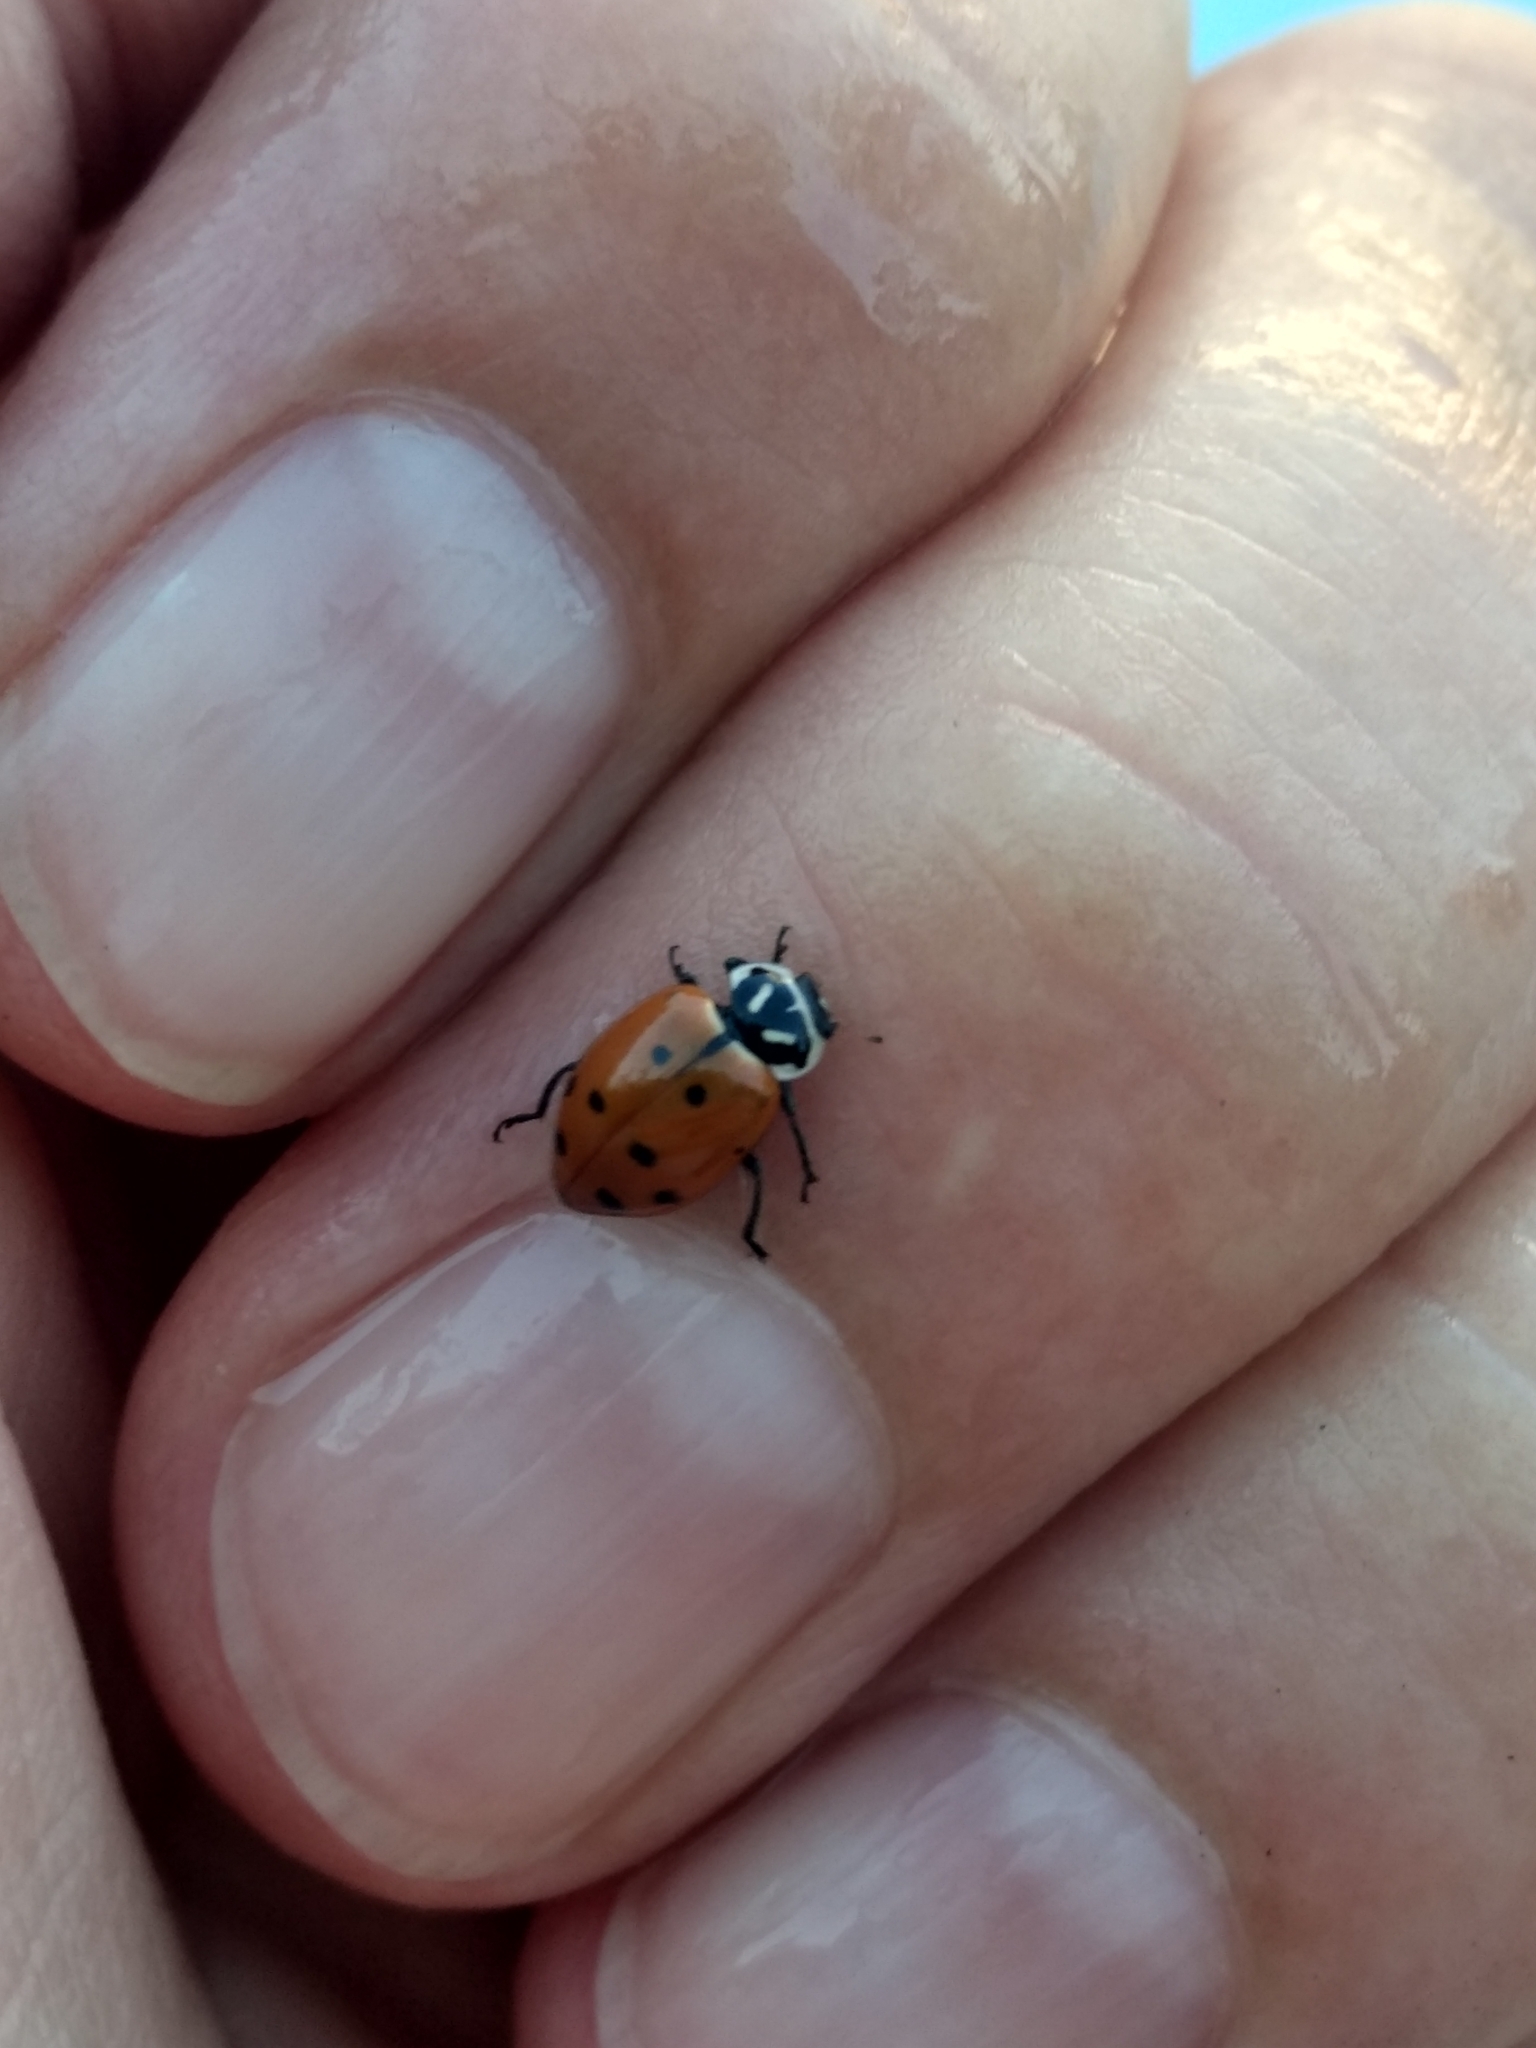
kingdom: Animalia
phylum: Arthropoda
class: Insecta
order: Coleoptera
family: Coccinellidae
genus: Hippodamia
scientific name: Hippodamia convergens
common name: Convergent lady beetle
